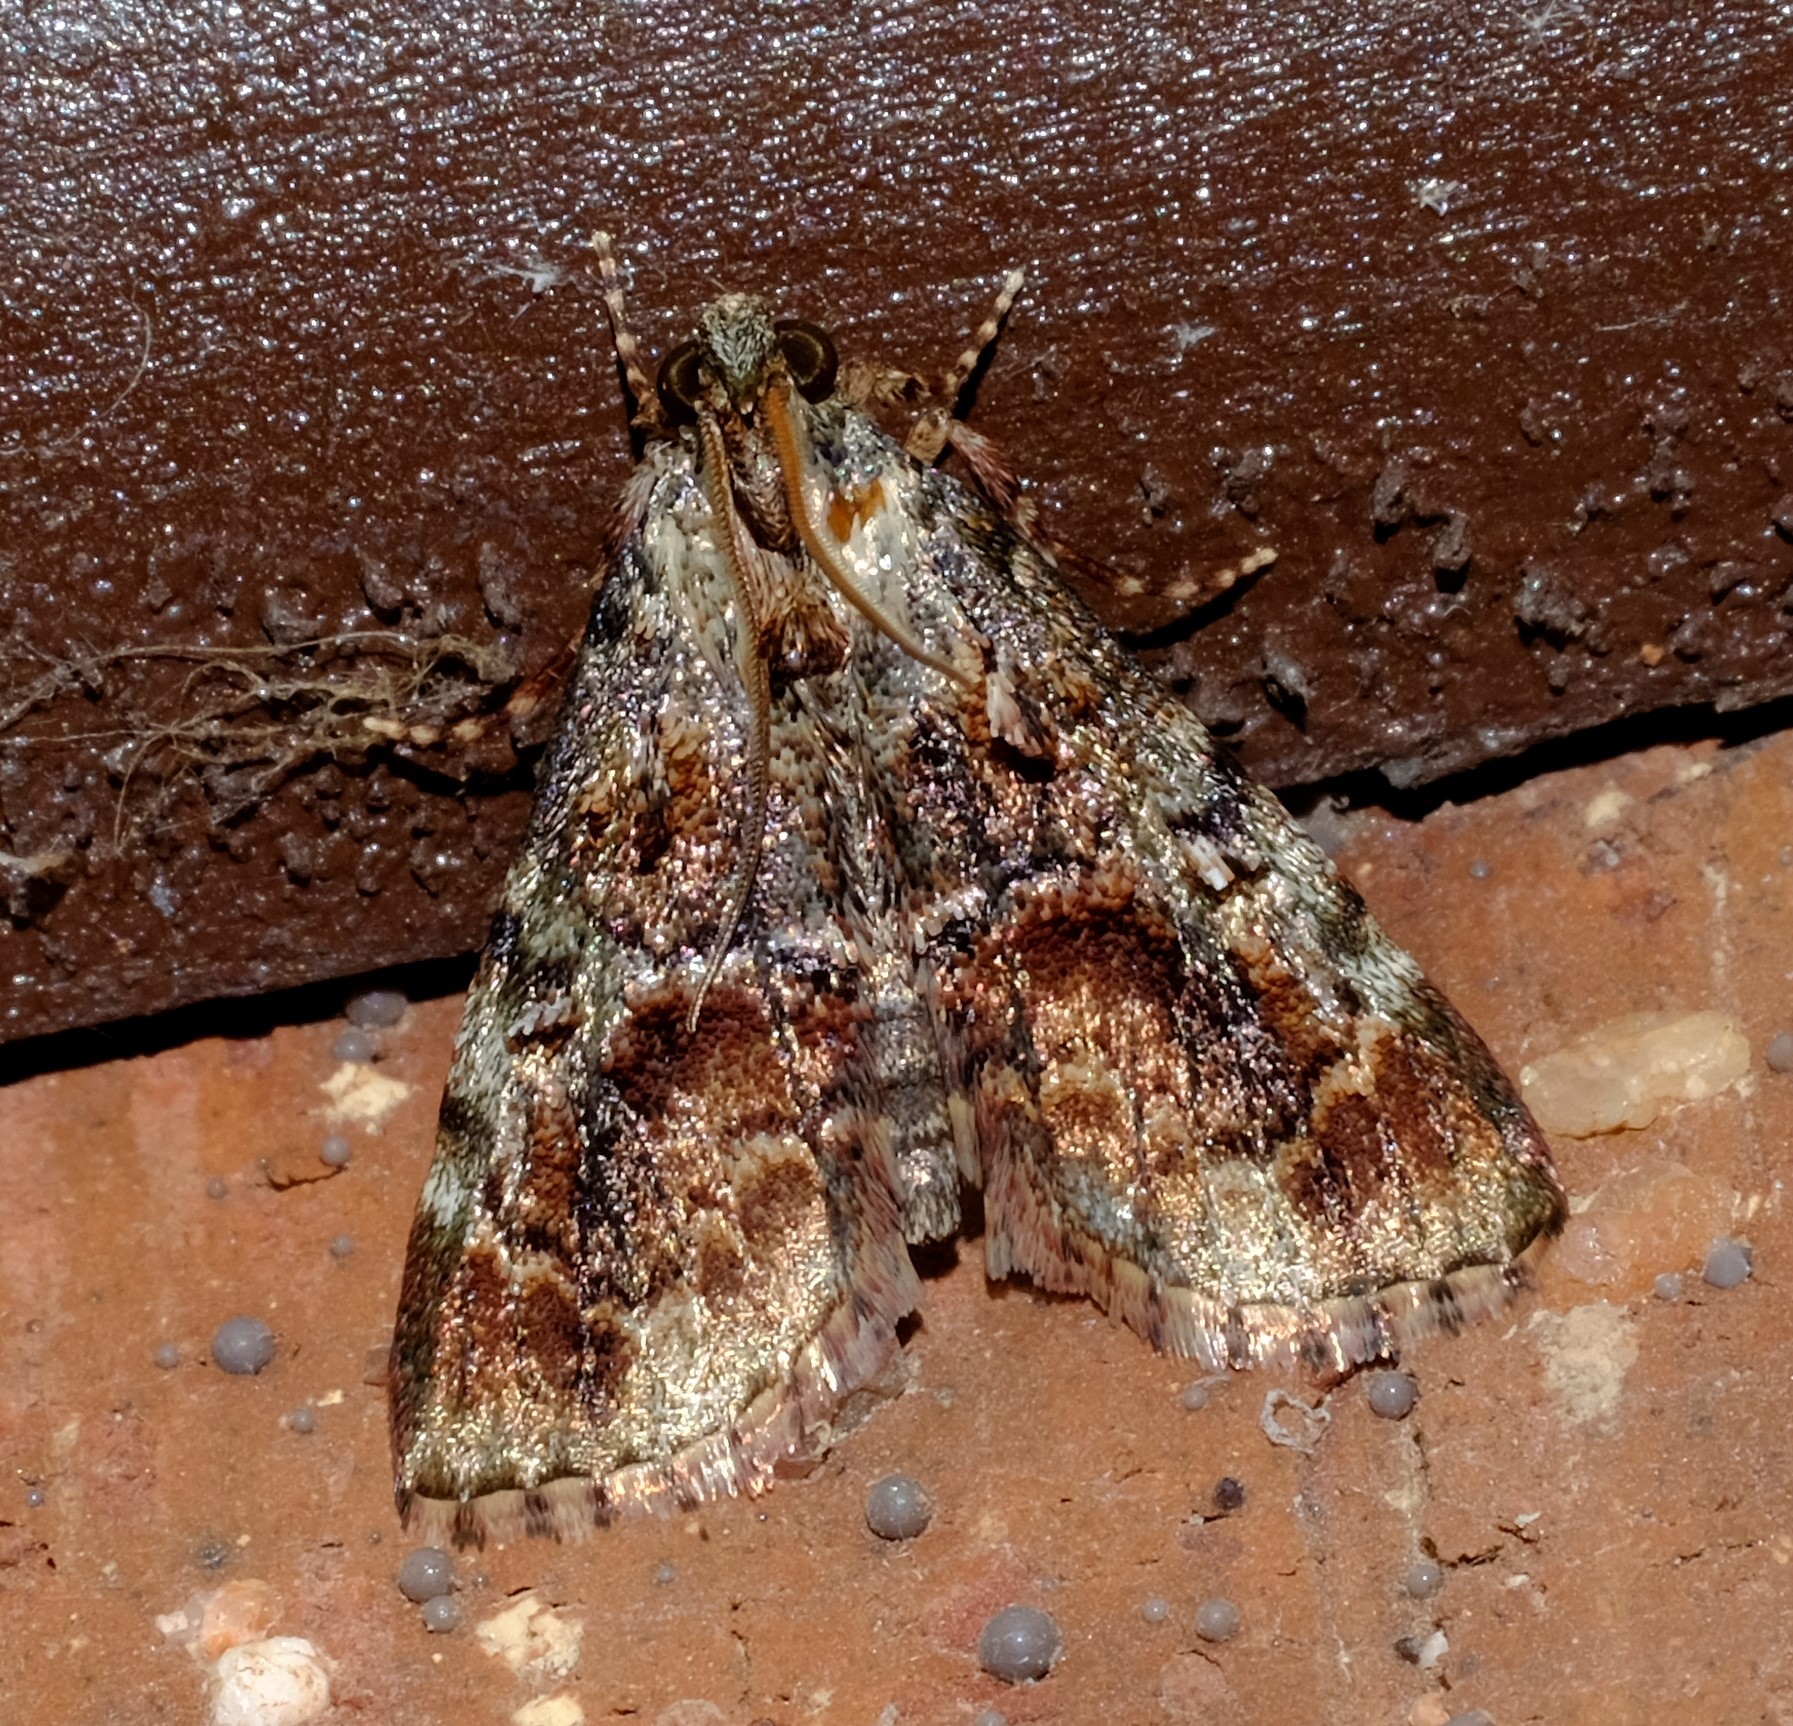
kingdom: Animalia
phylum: Arthropoda
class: Insecta
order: Lepidoptera
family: Pyralidae
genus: Orthaga
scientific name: Orthaga thyrisalis
